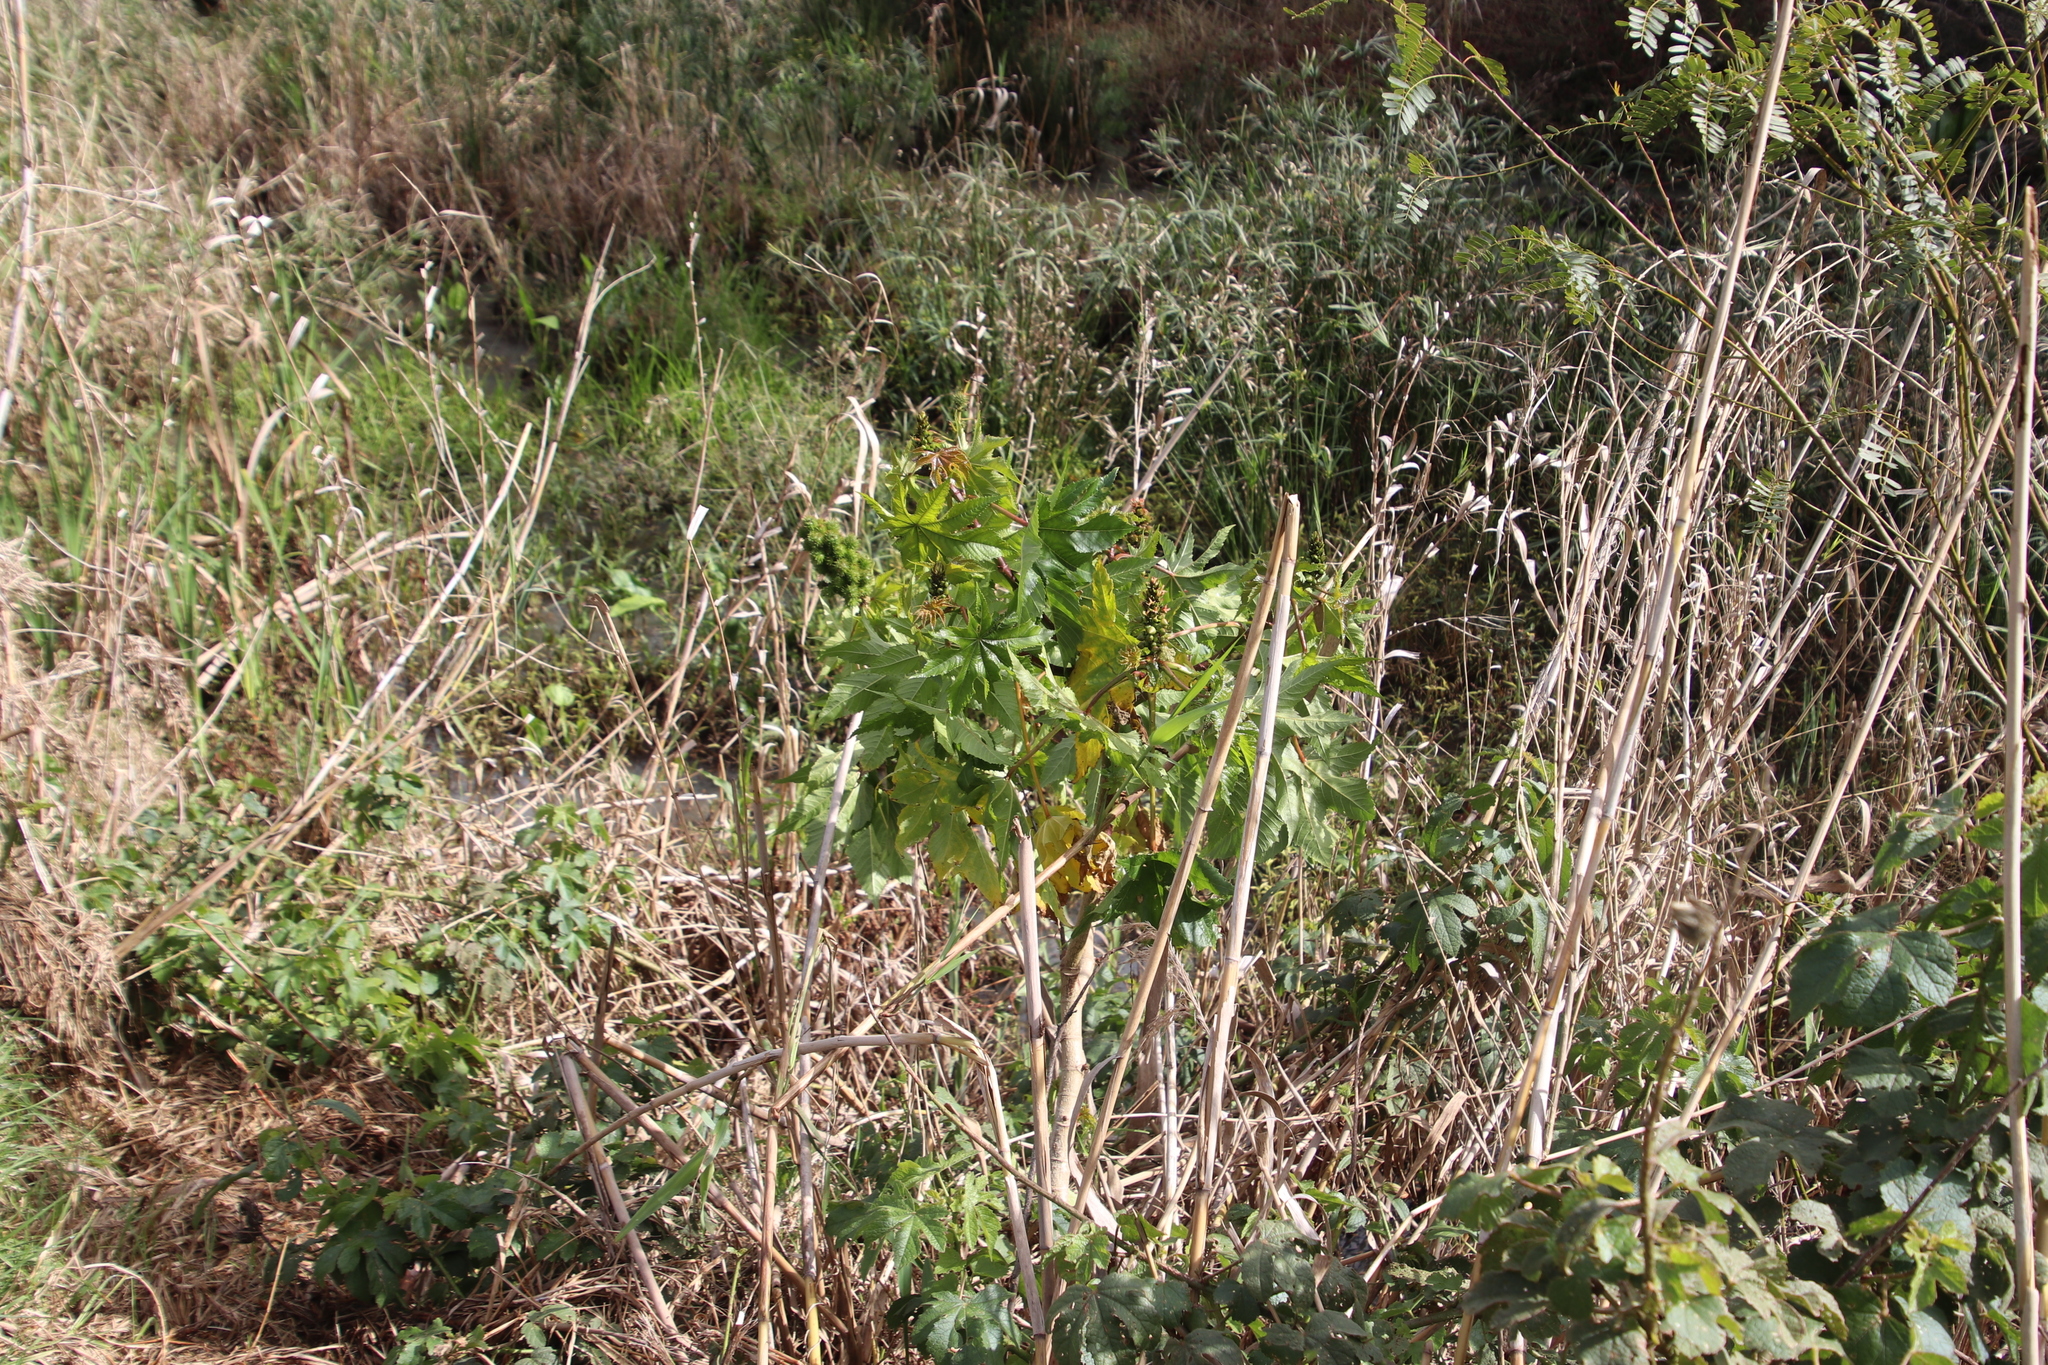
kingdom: Plantae
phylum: Tracheophyta
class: Magnoliopsida
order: Malpighiales
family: Euphorbiaceae
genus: Ricinus
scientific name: Ricinus communis
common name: Castor-oil-plant
